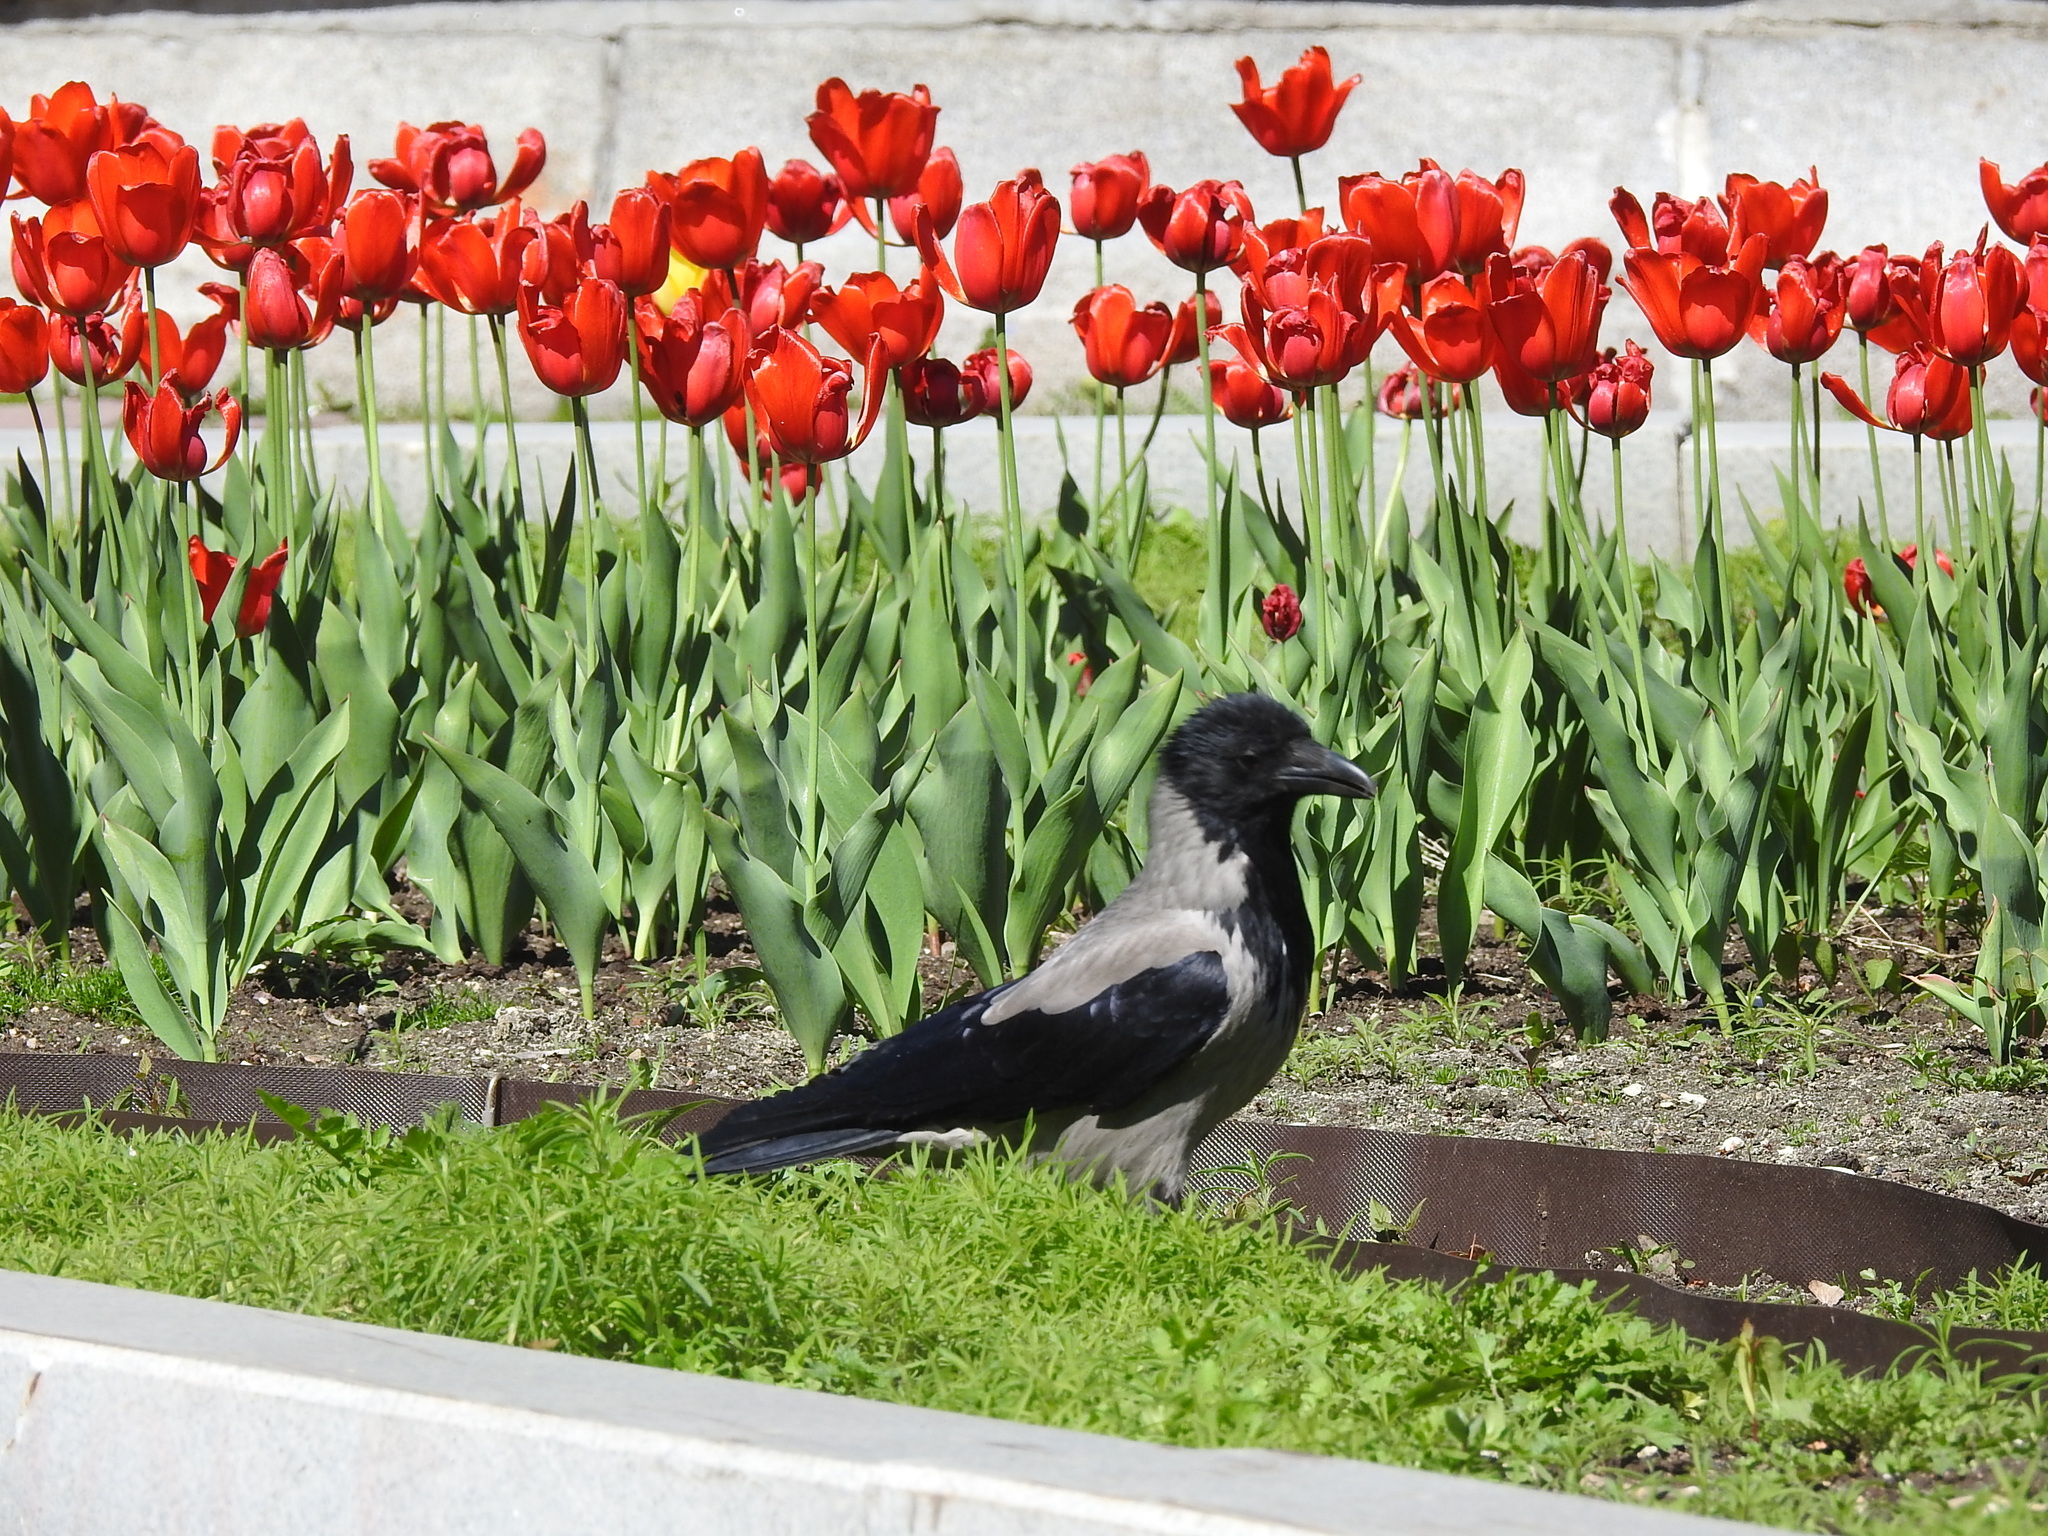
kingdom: Animalia
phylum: Chordata
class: Aves
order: Passeriformes
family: Corvidae
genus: Corvus
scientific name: Corvus cornix
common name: Hooded crow
